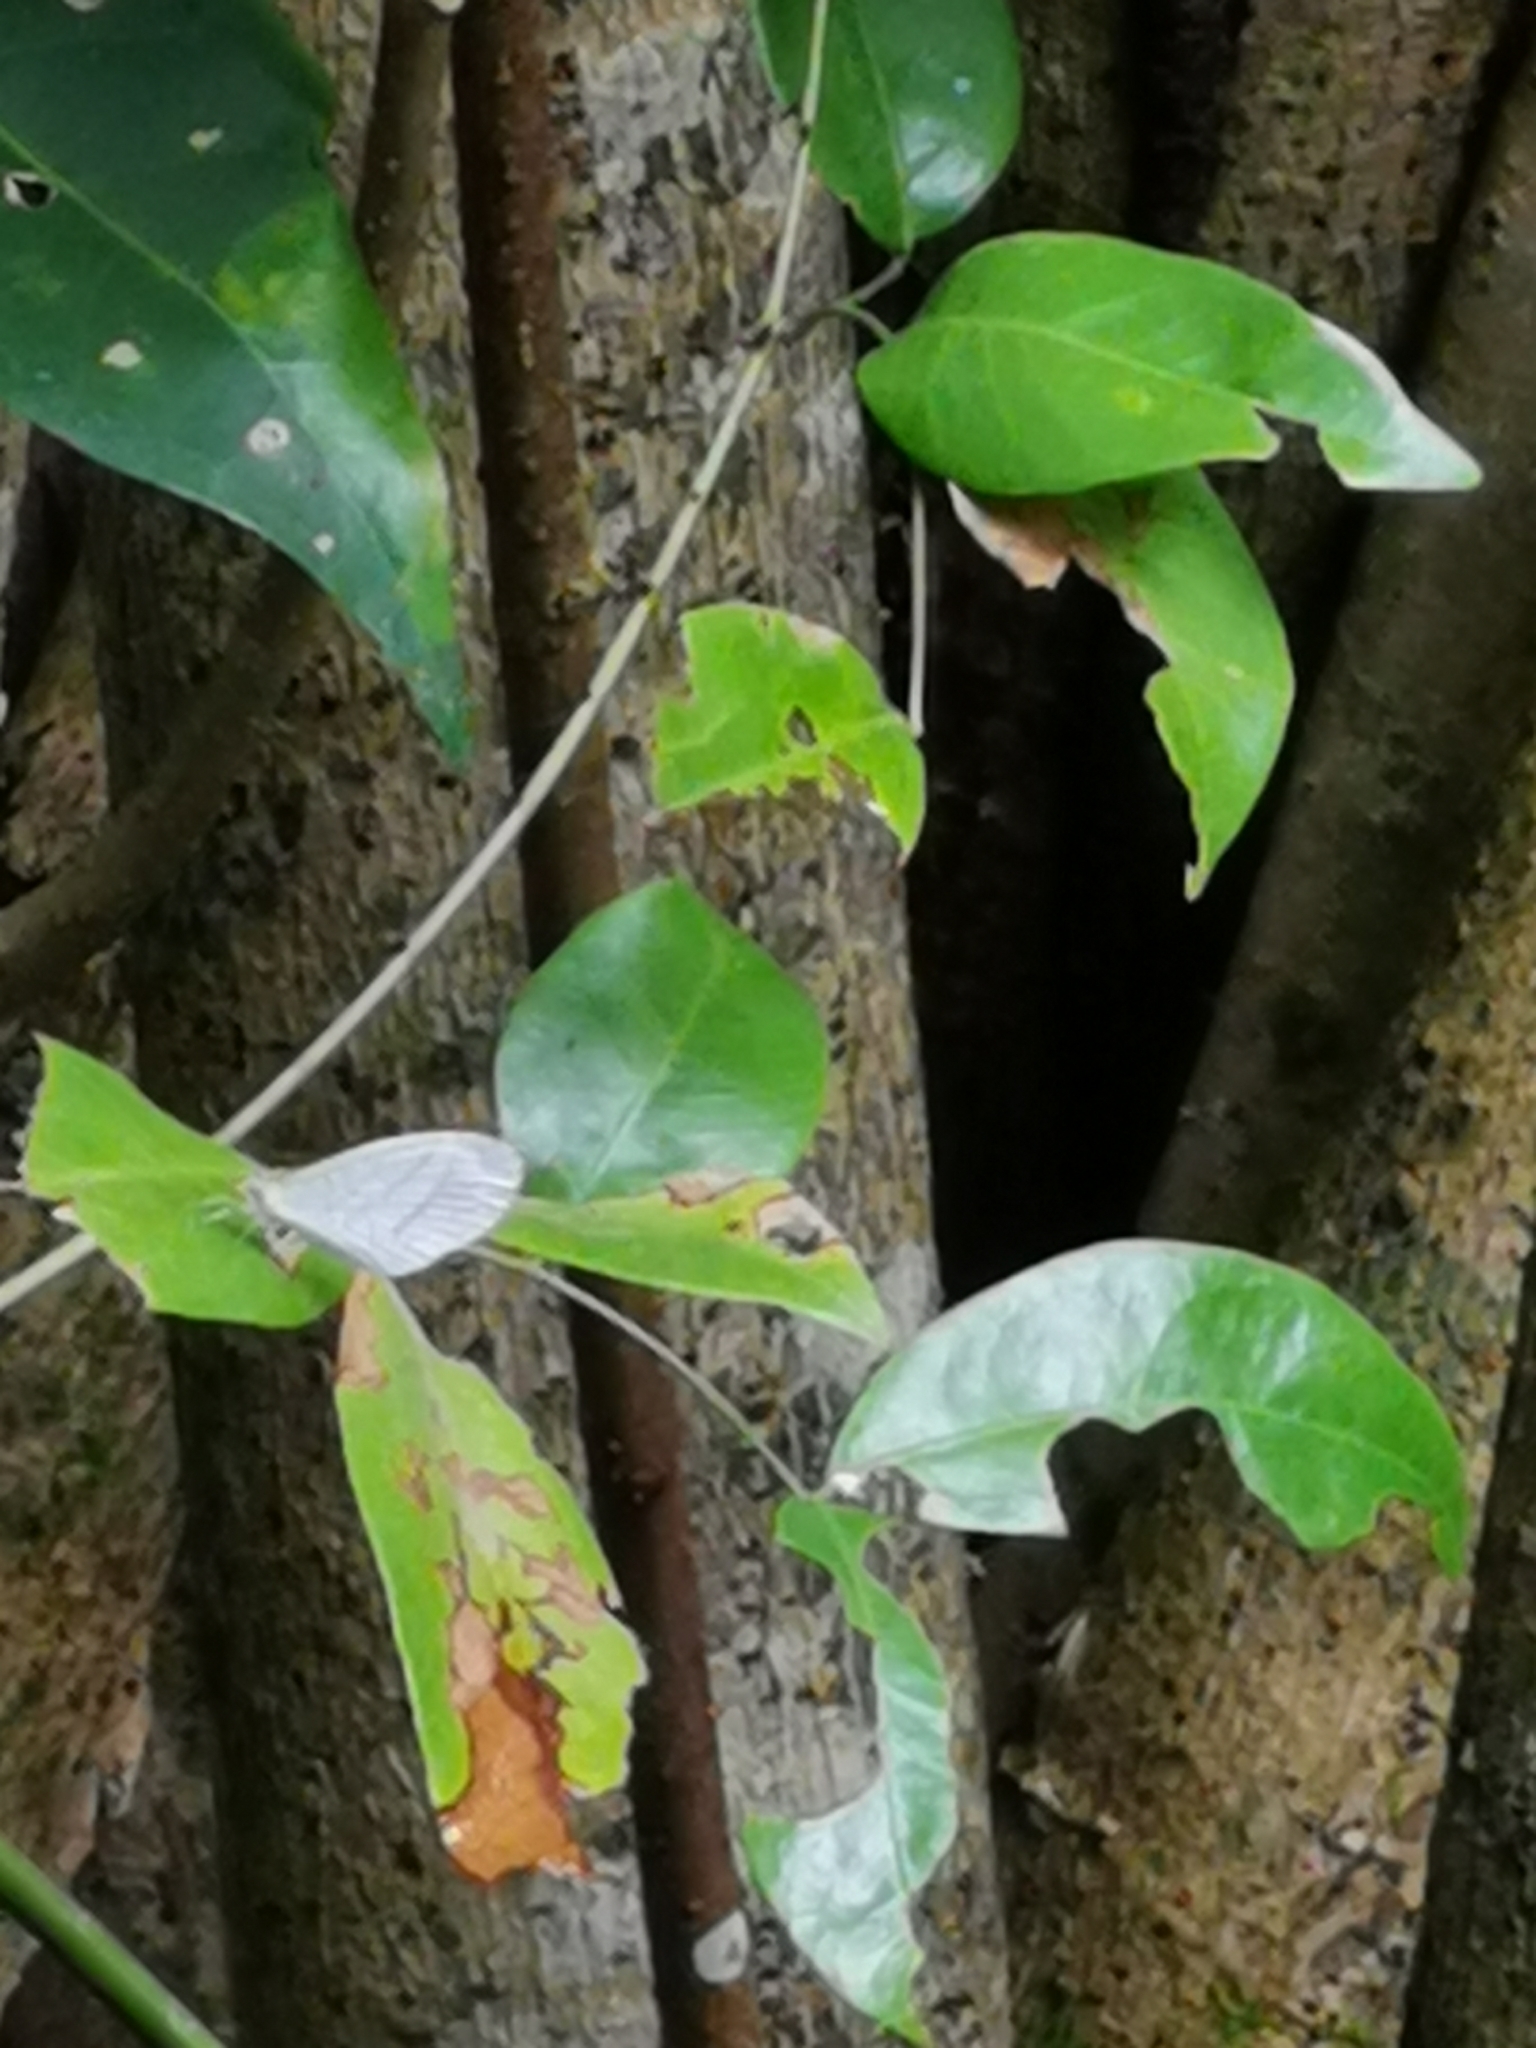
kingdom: Animalia
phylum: Arthropoda
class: Insecta
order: Lepidoptera
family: Pieridae
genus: Leptosia
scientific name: Leptosia nina
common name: Psyche
